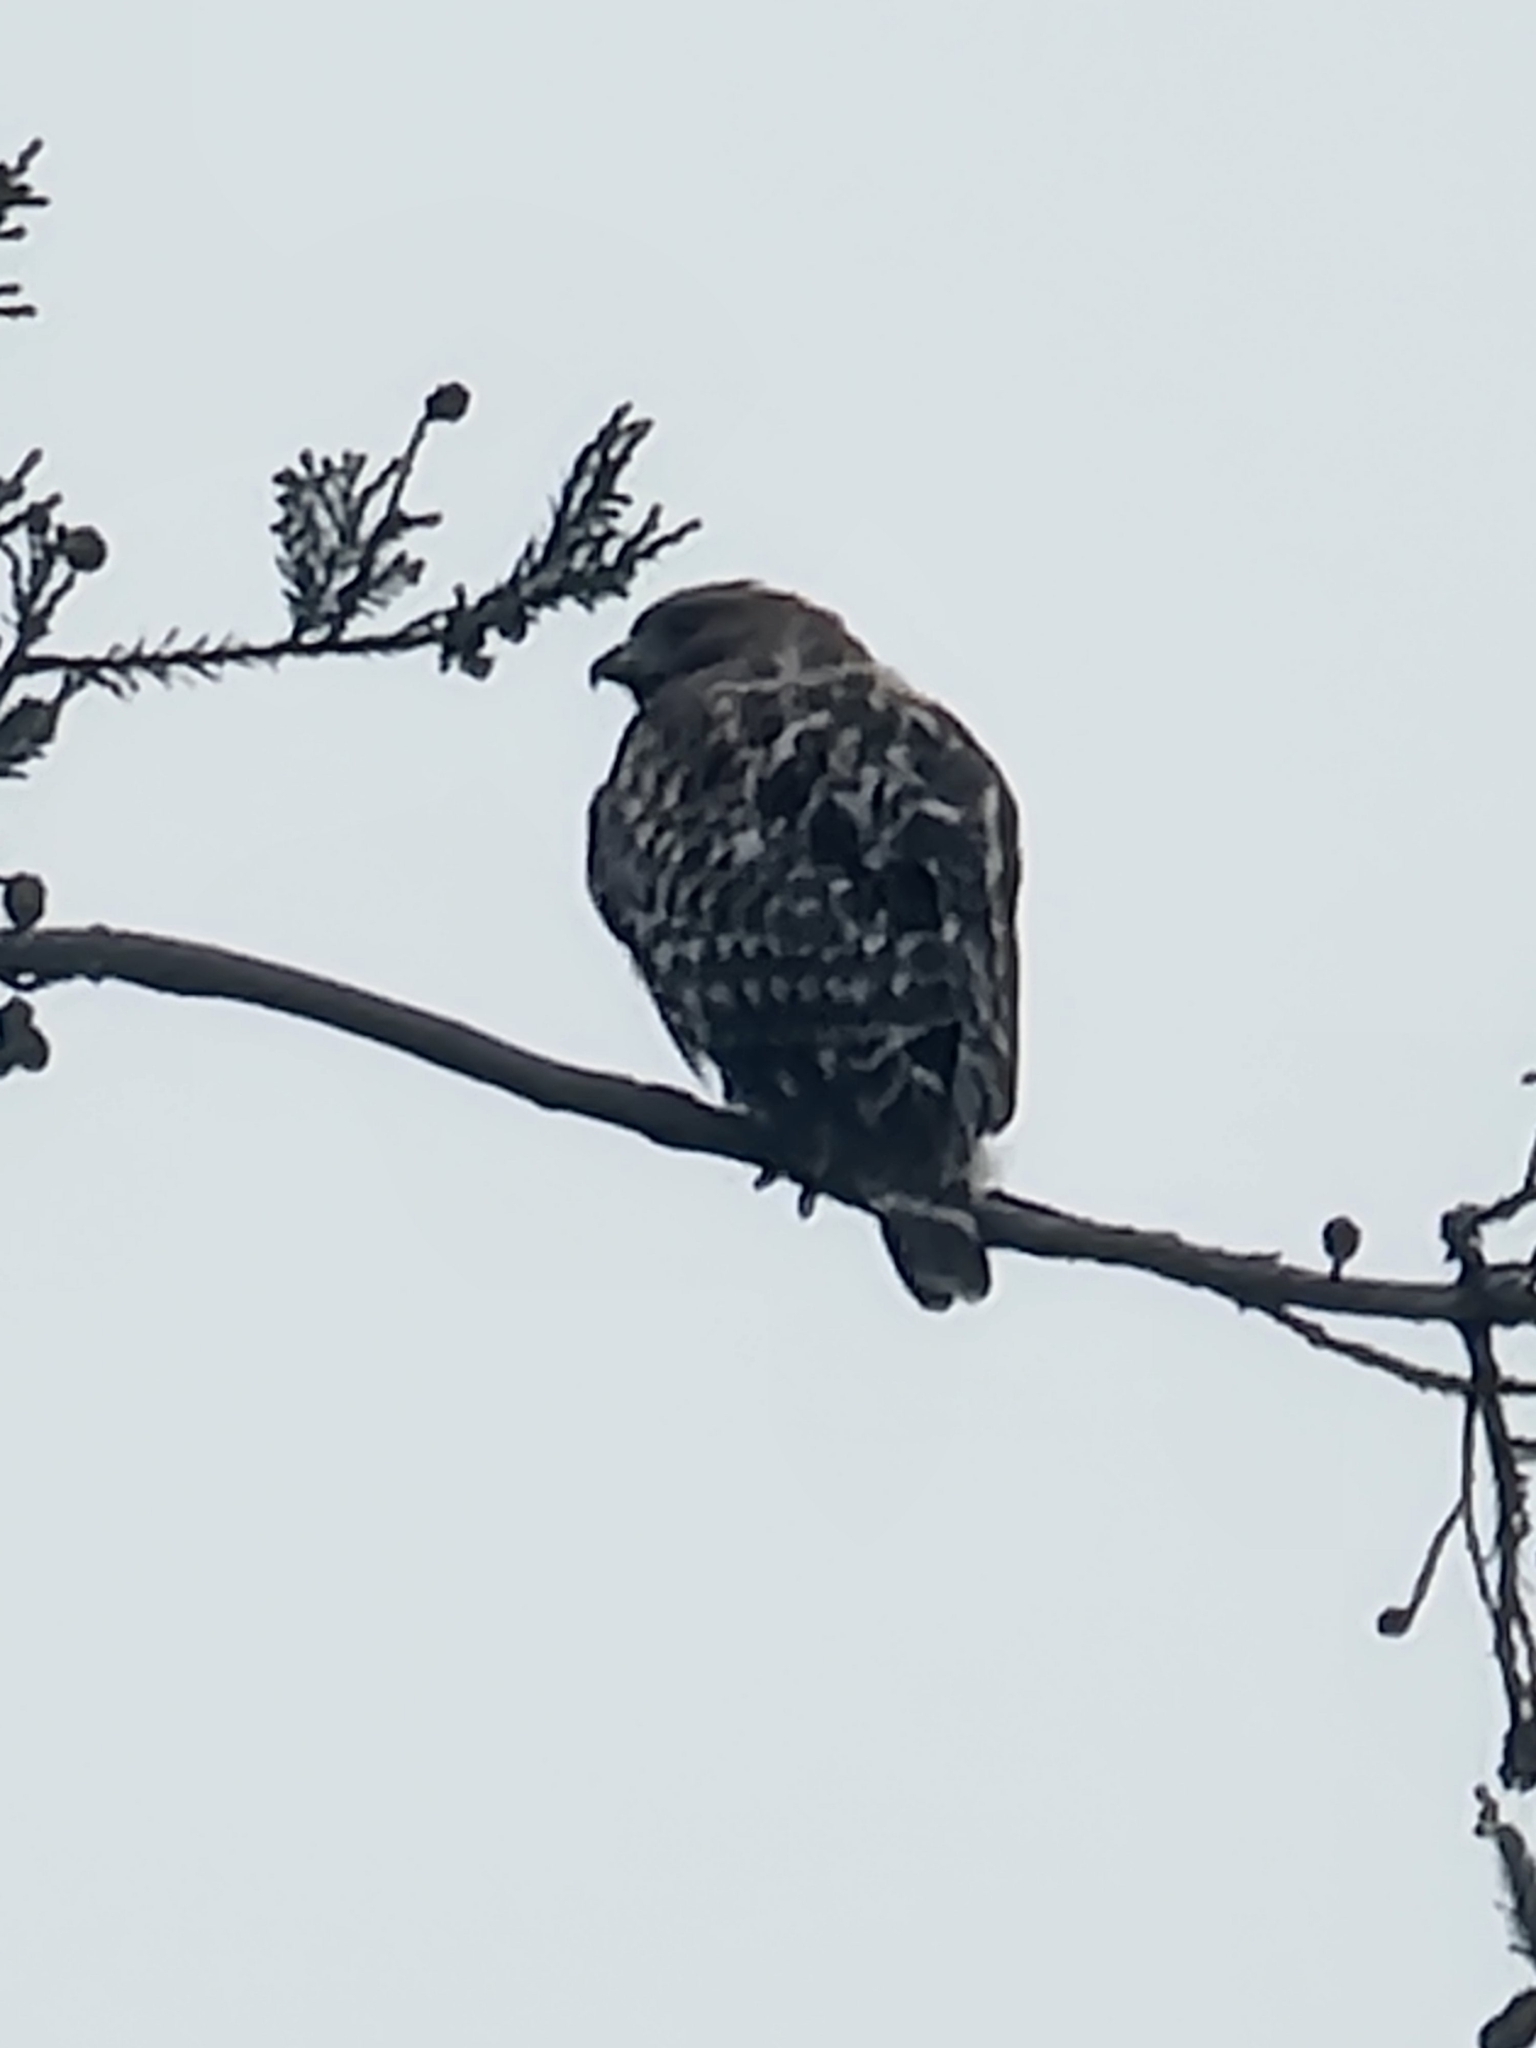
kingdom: Animalia
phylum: Chordata
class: Aves
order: Accipitriformes
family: Accipitridae
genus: Buteo
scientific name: Buteo lineatus
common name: Red-shouldered hawk
